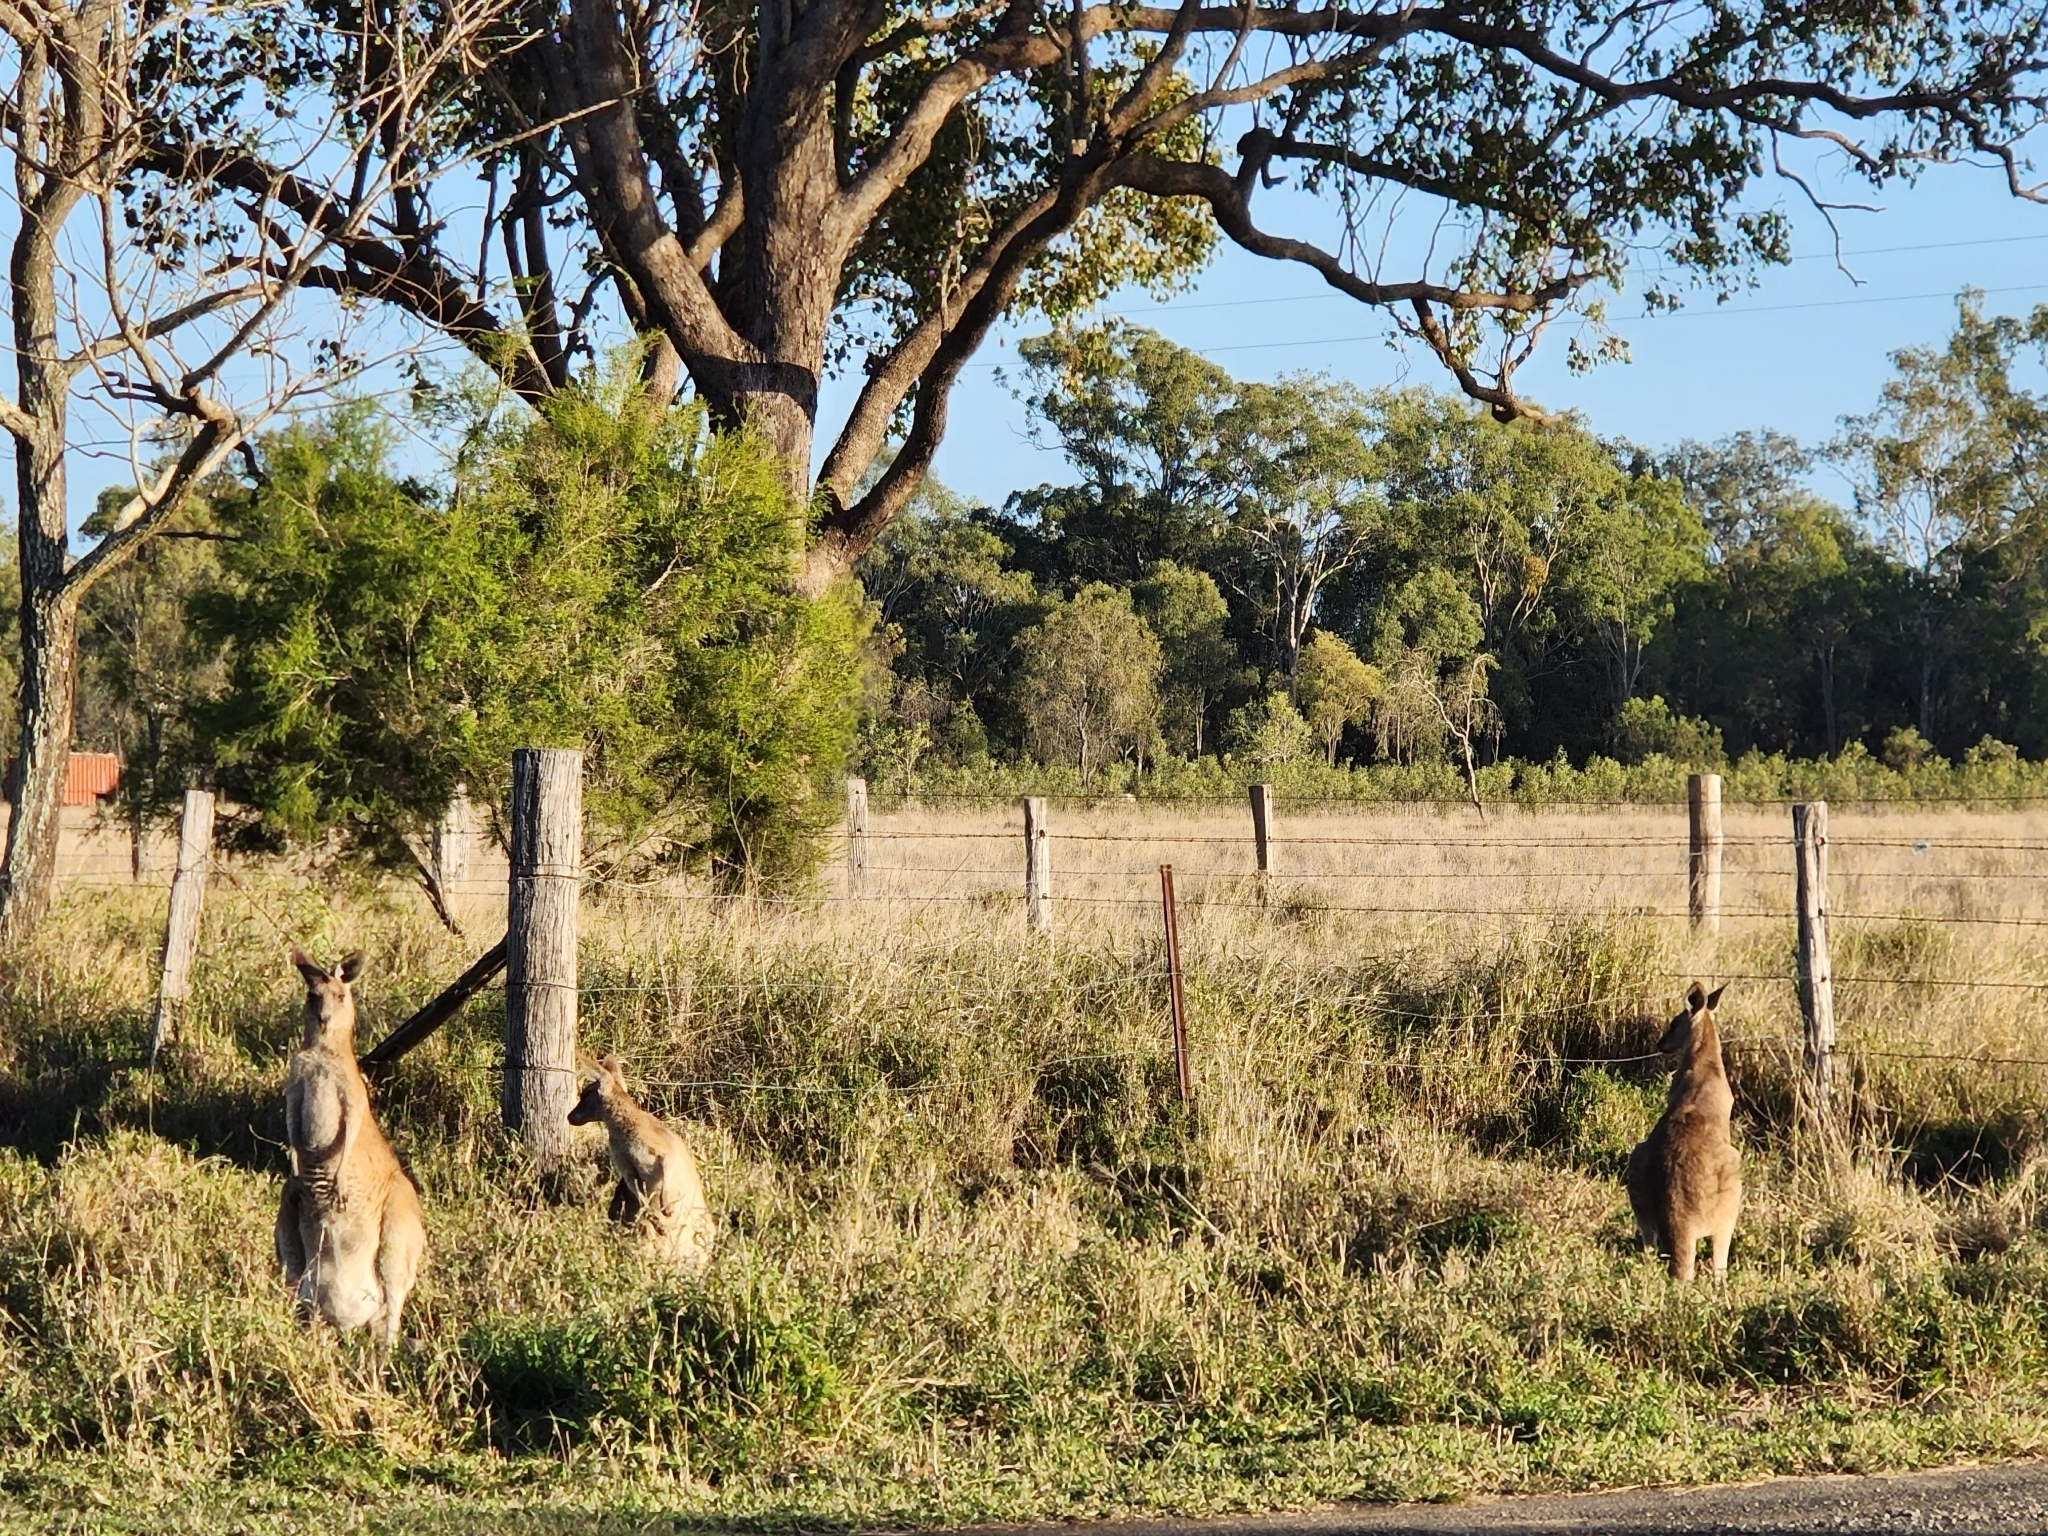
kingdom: Animalia
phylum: Chordata
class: Mammalia
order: Diprotodontia
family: Macropodidae
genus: Macropus
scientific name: Macropus giganteus
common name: Eastern grey kangaroo
